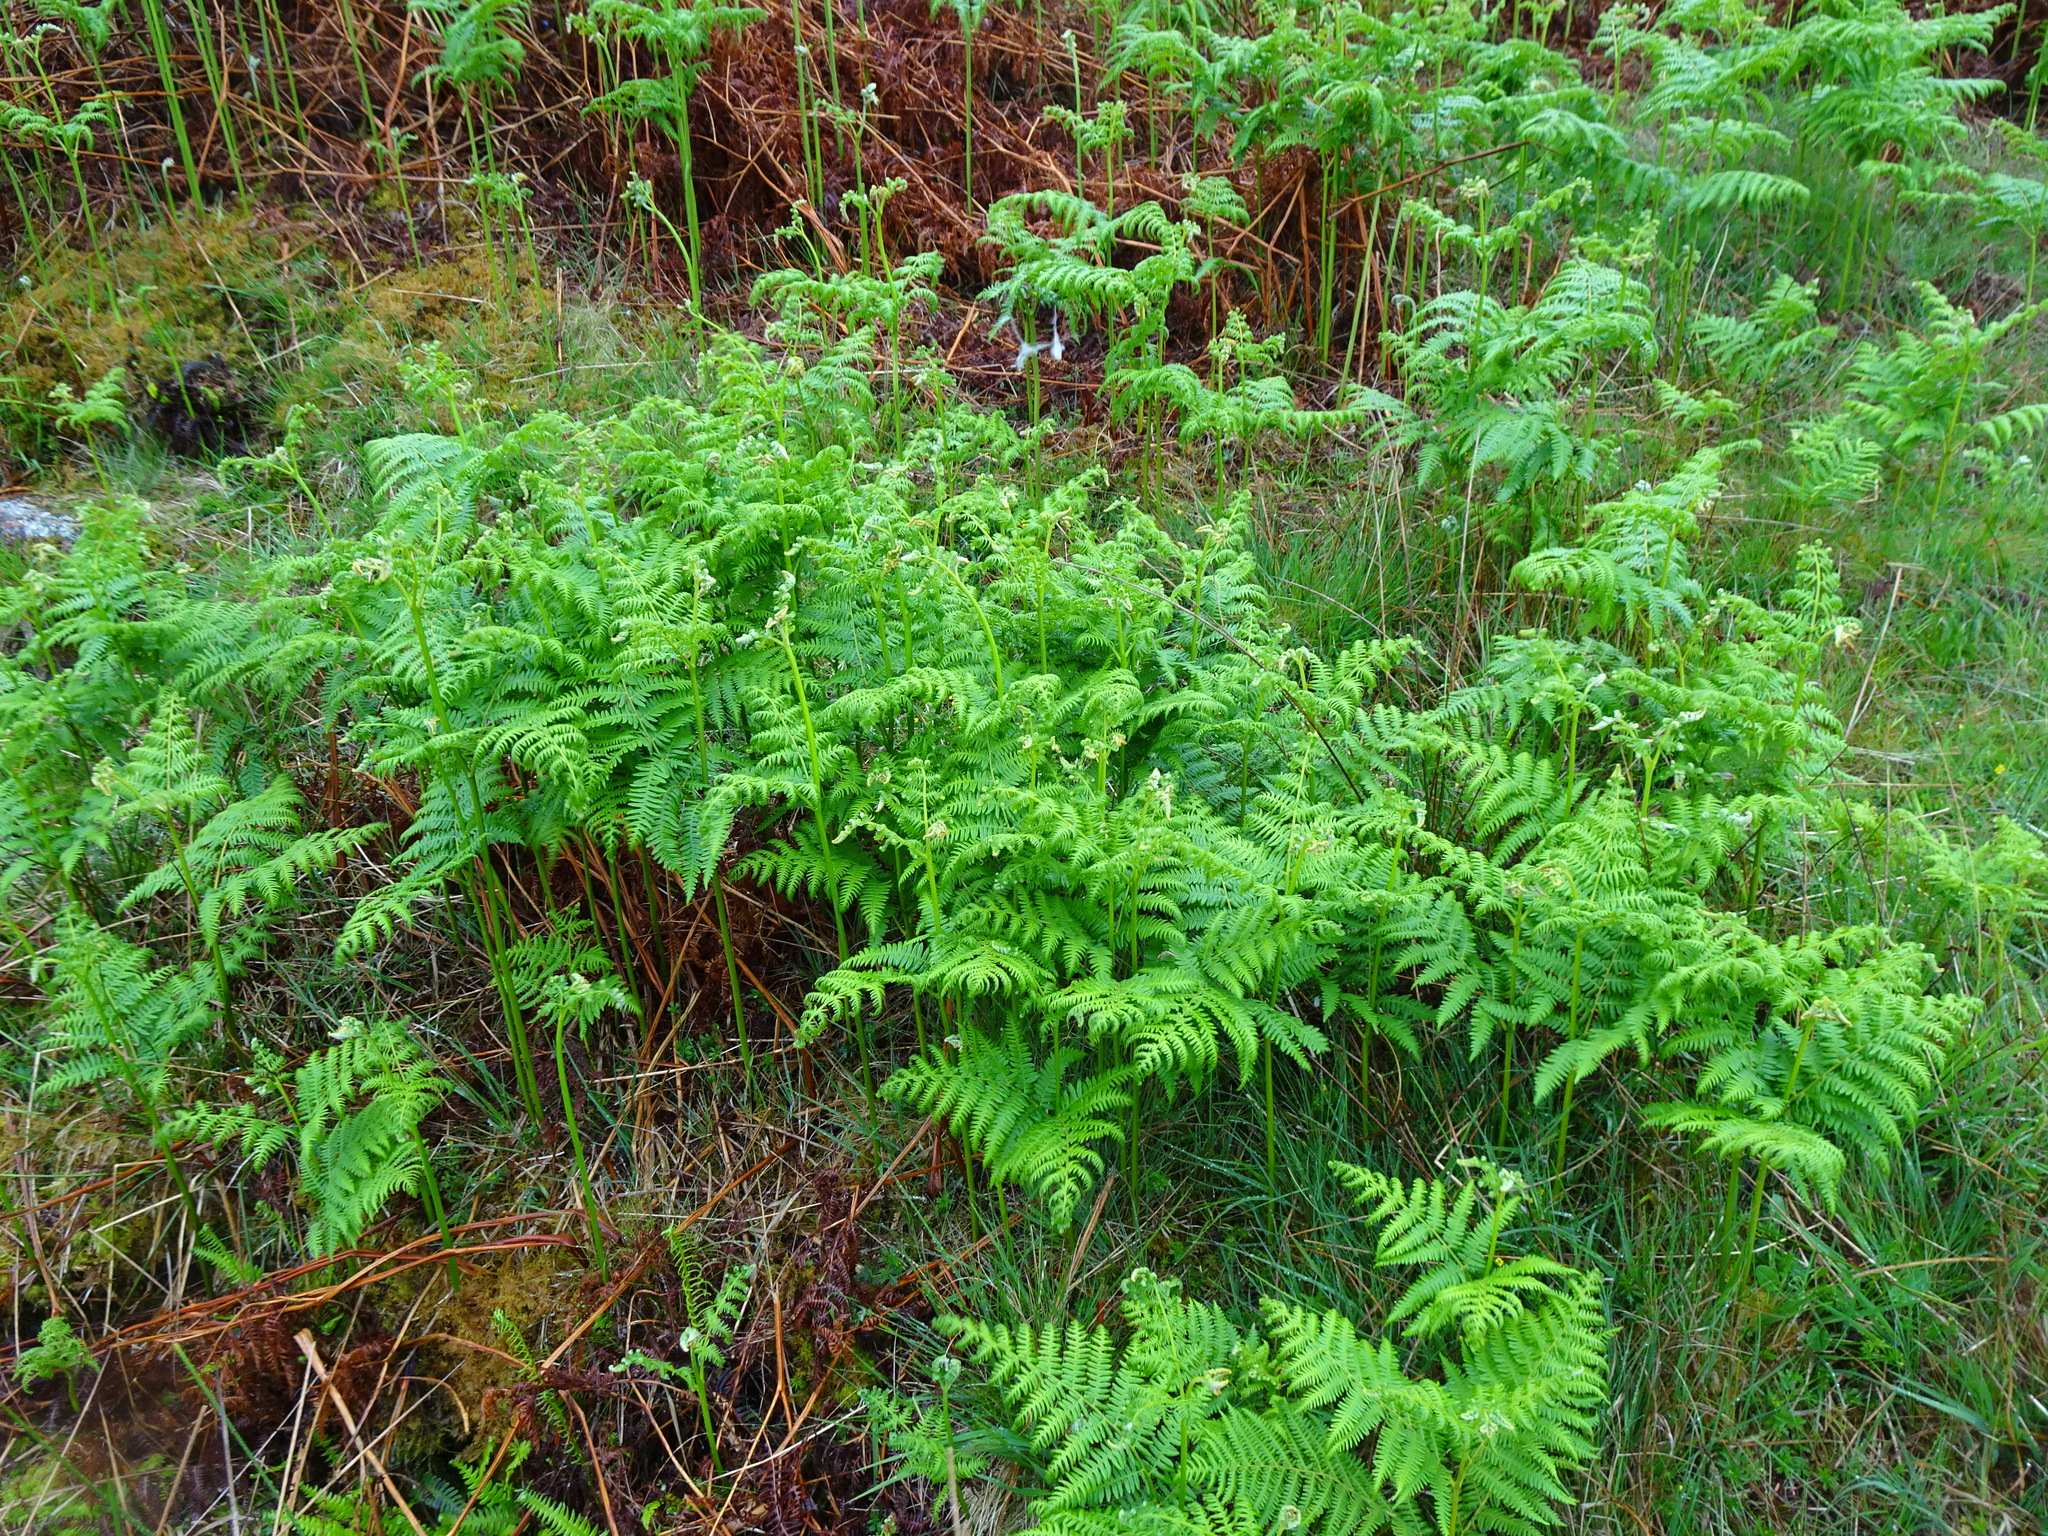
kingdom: Plantae
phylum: Tracheophyta
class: Polypodiopsida
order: Polypodiales
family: Dennstaedtiaceae
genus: Pteridium
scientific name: Pteridium aquilinum
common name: Bracken
